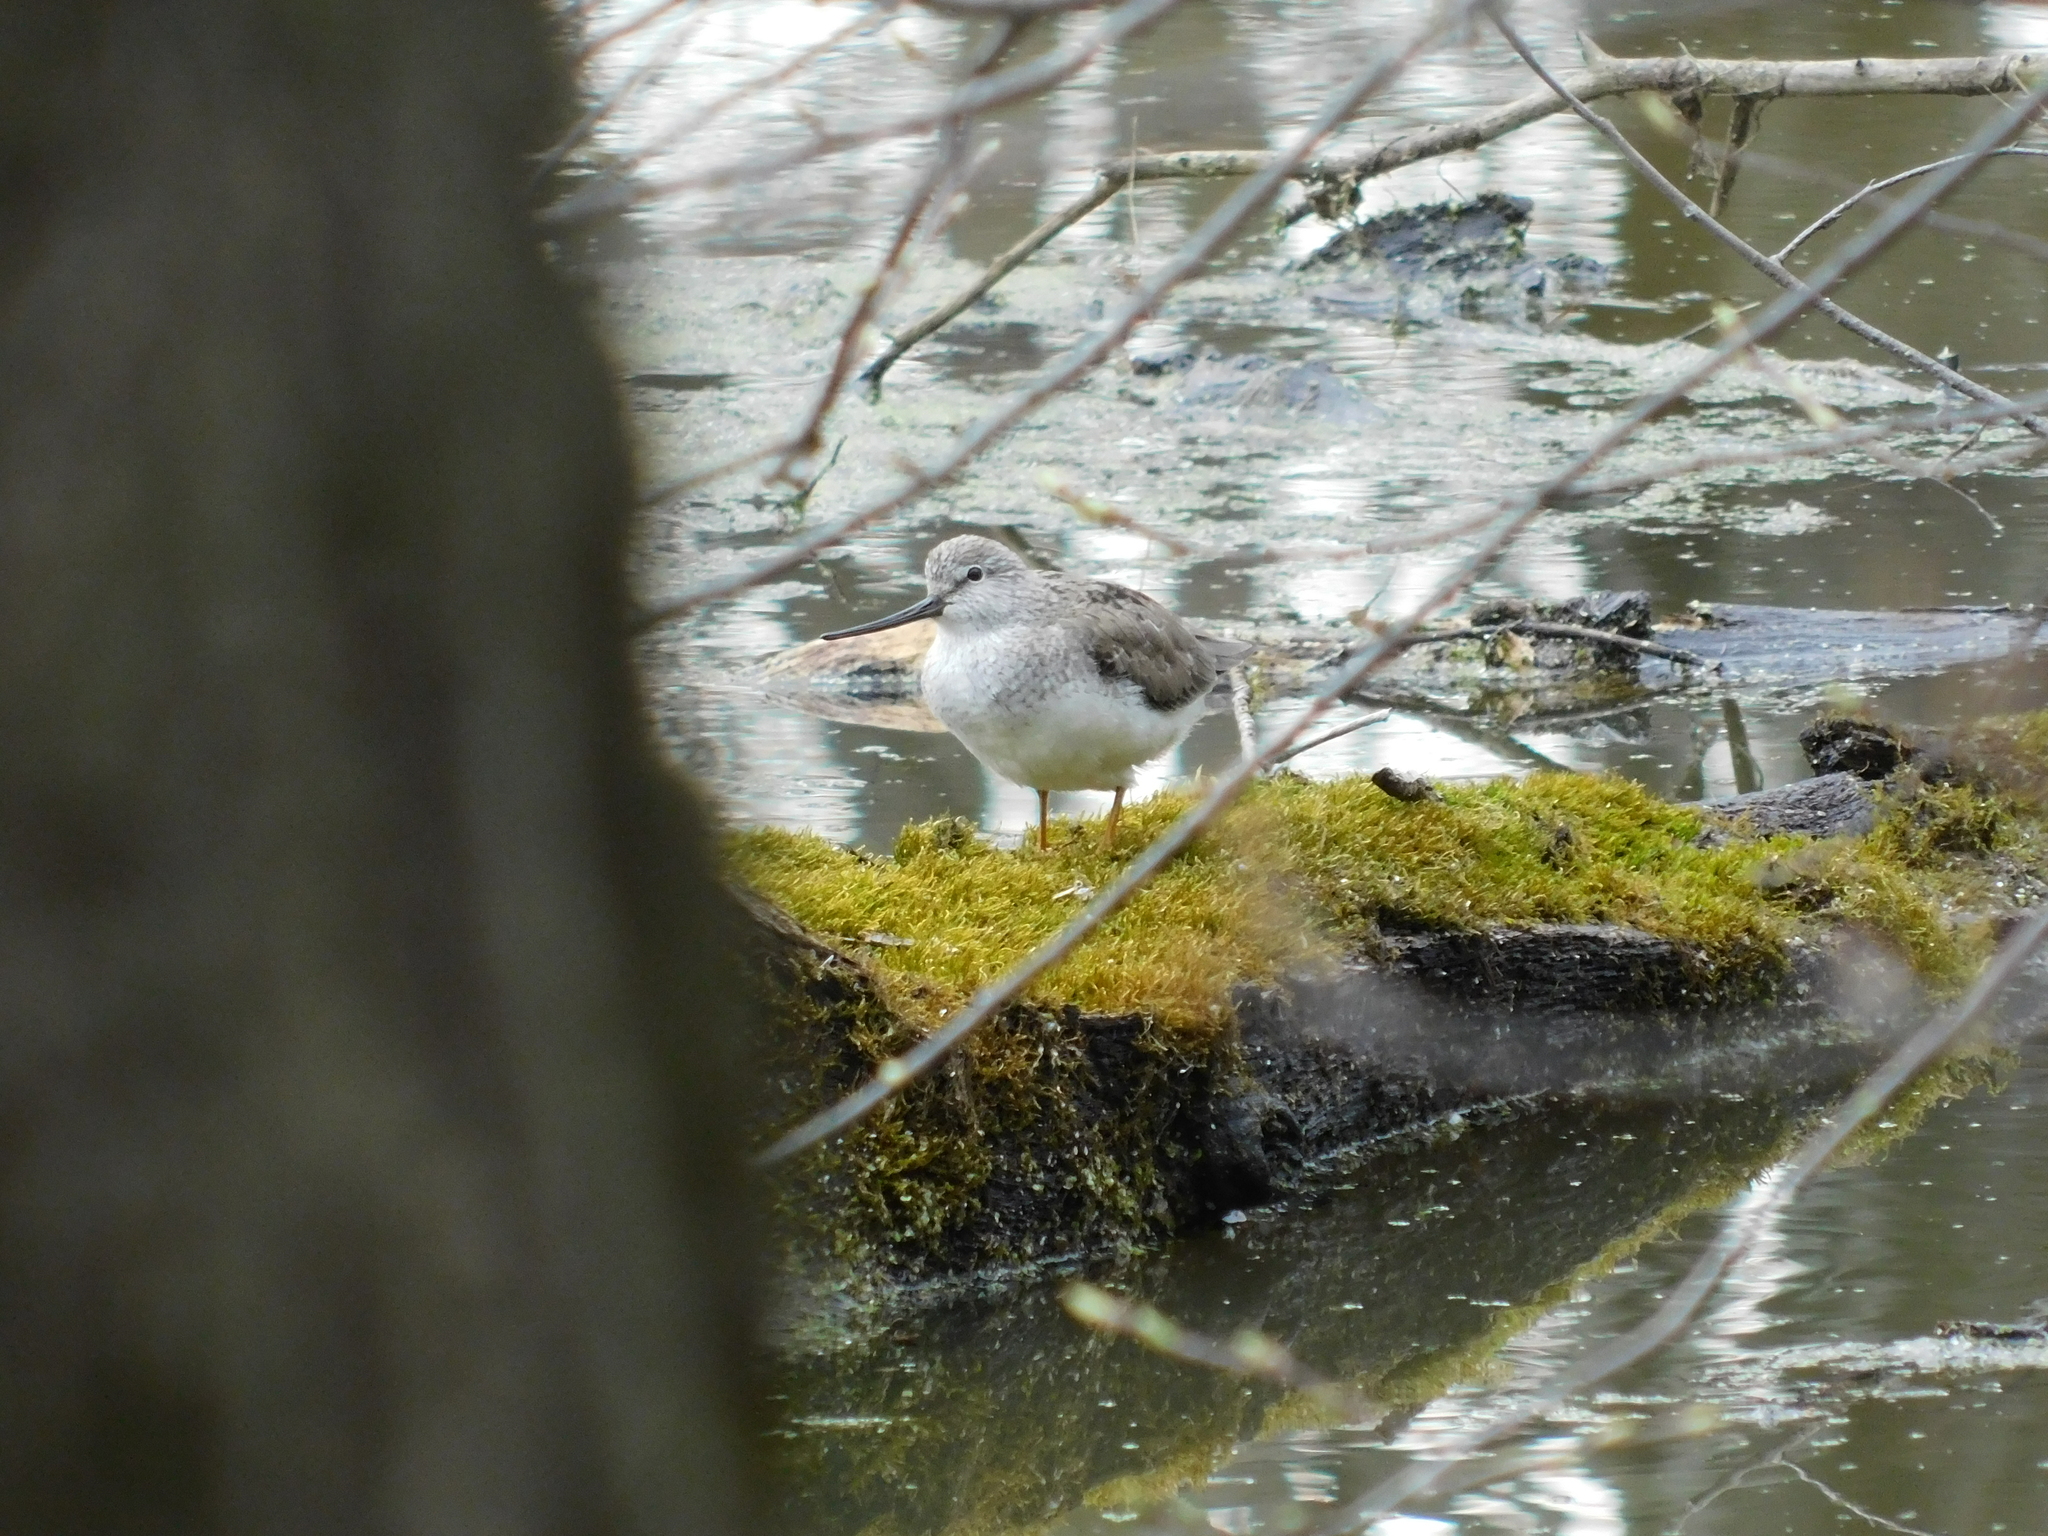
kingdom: Animalia
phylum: Chordata
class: Aves
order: Charadriiformes
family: Scolopacidae
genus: Xenus
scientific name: Xenus cinereus
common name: Terek sandpiper
